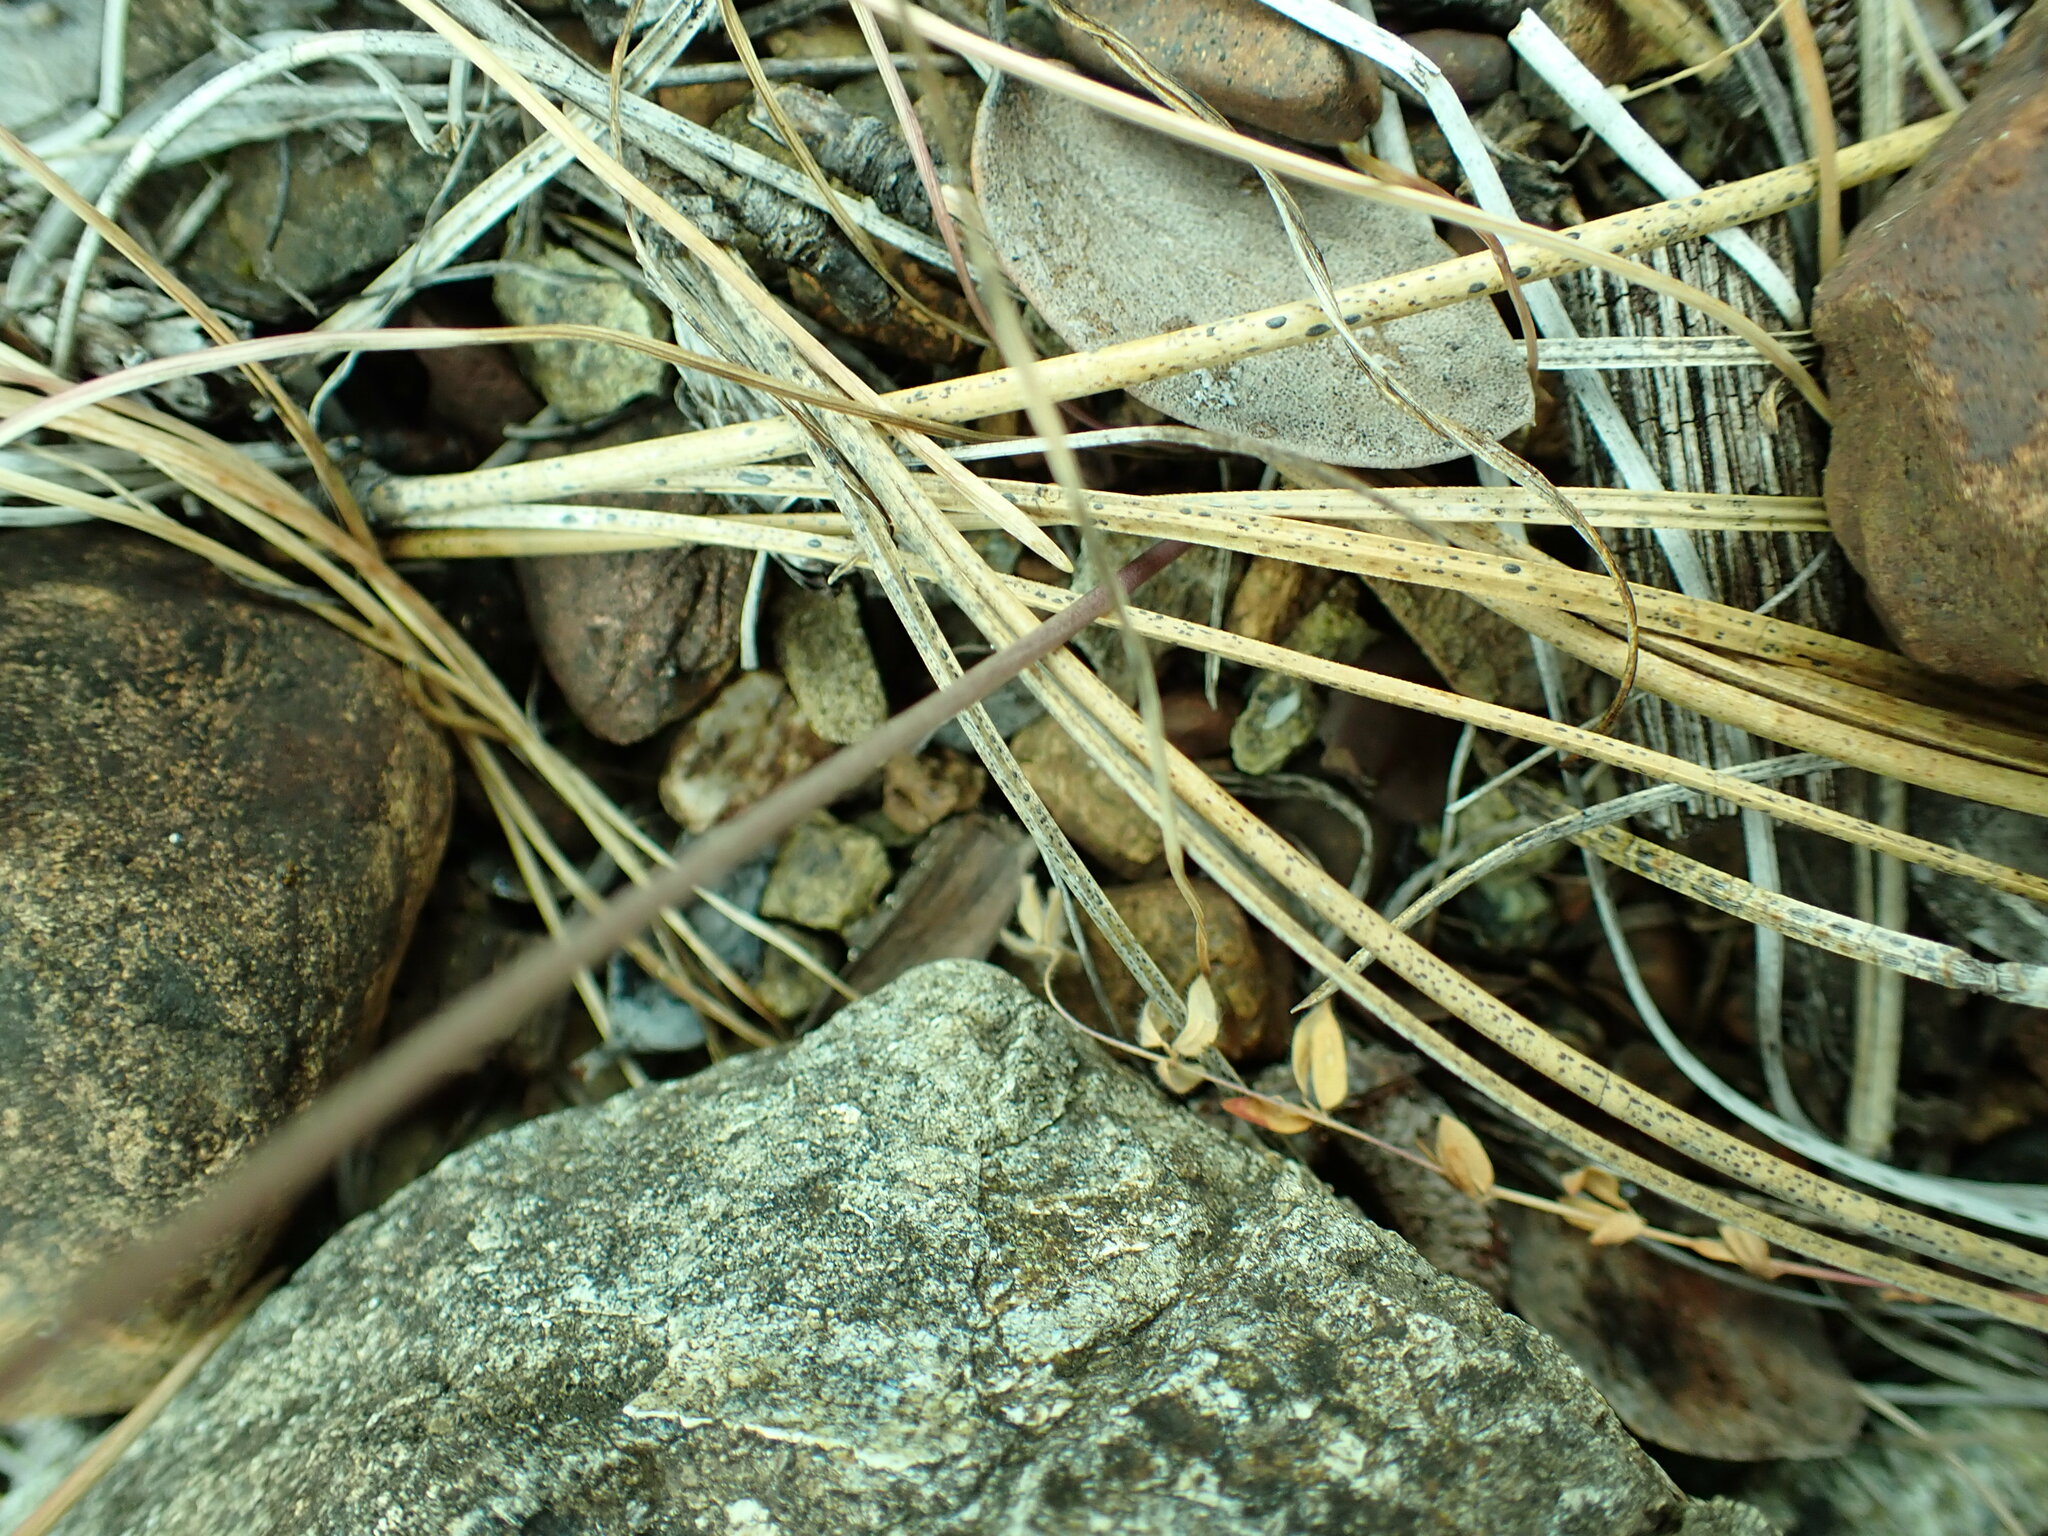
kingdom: Plantae
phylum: Tracheophyta
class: Liliopsida
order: Asparagales
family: Asparagaceae
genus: Brodiaea
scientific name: Brodiaea elegans
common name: Elegant cluster-lily
